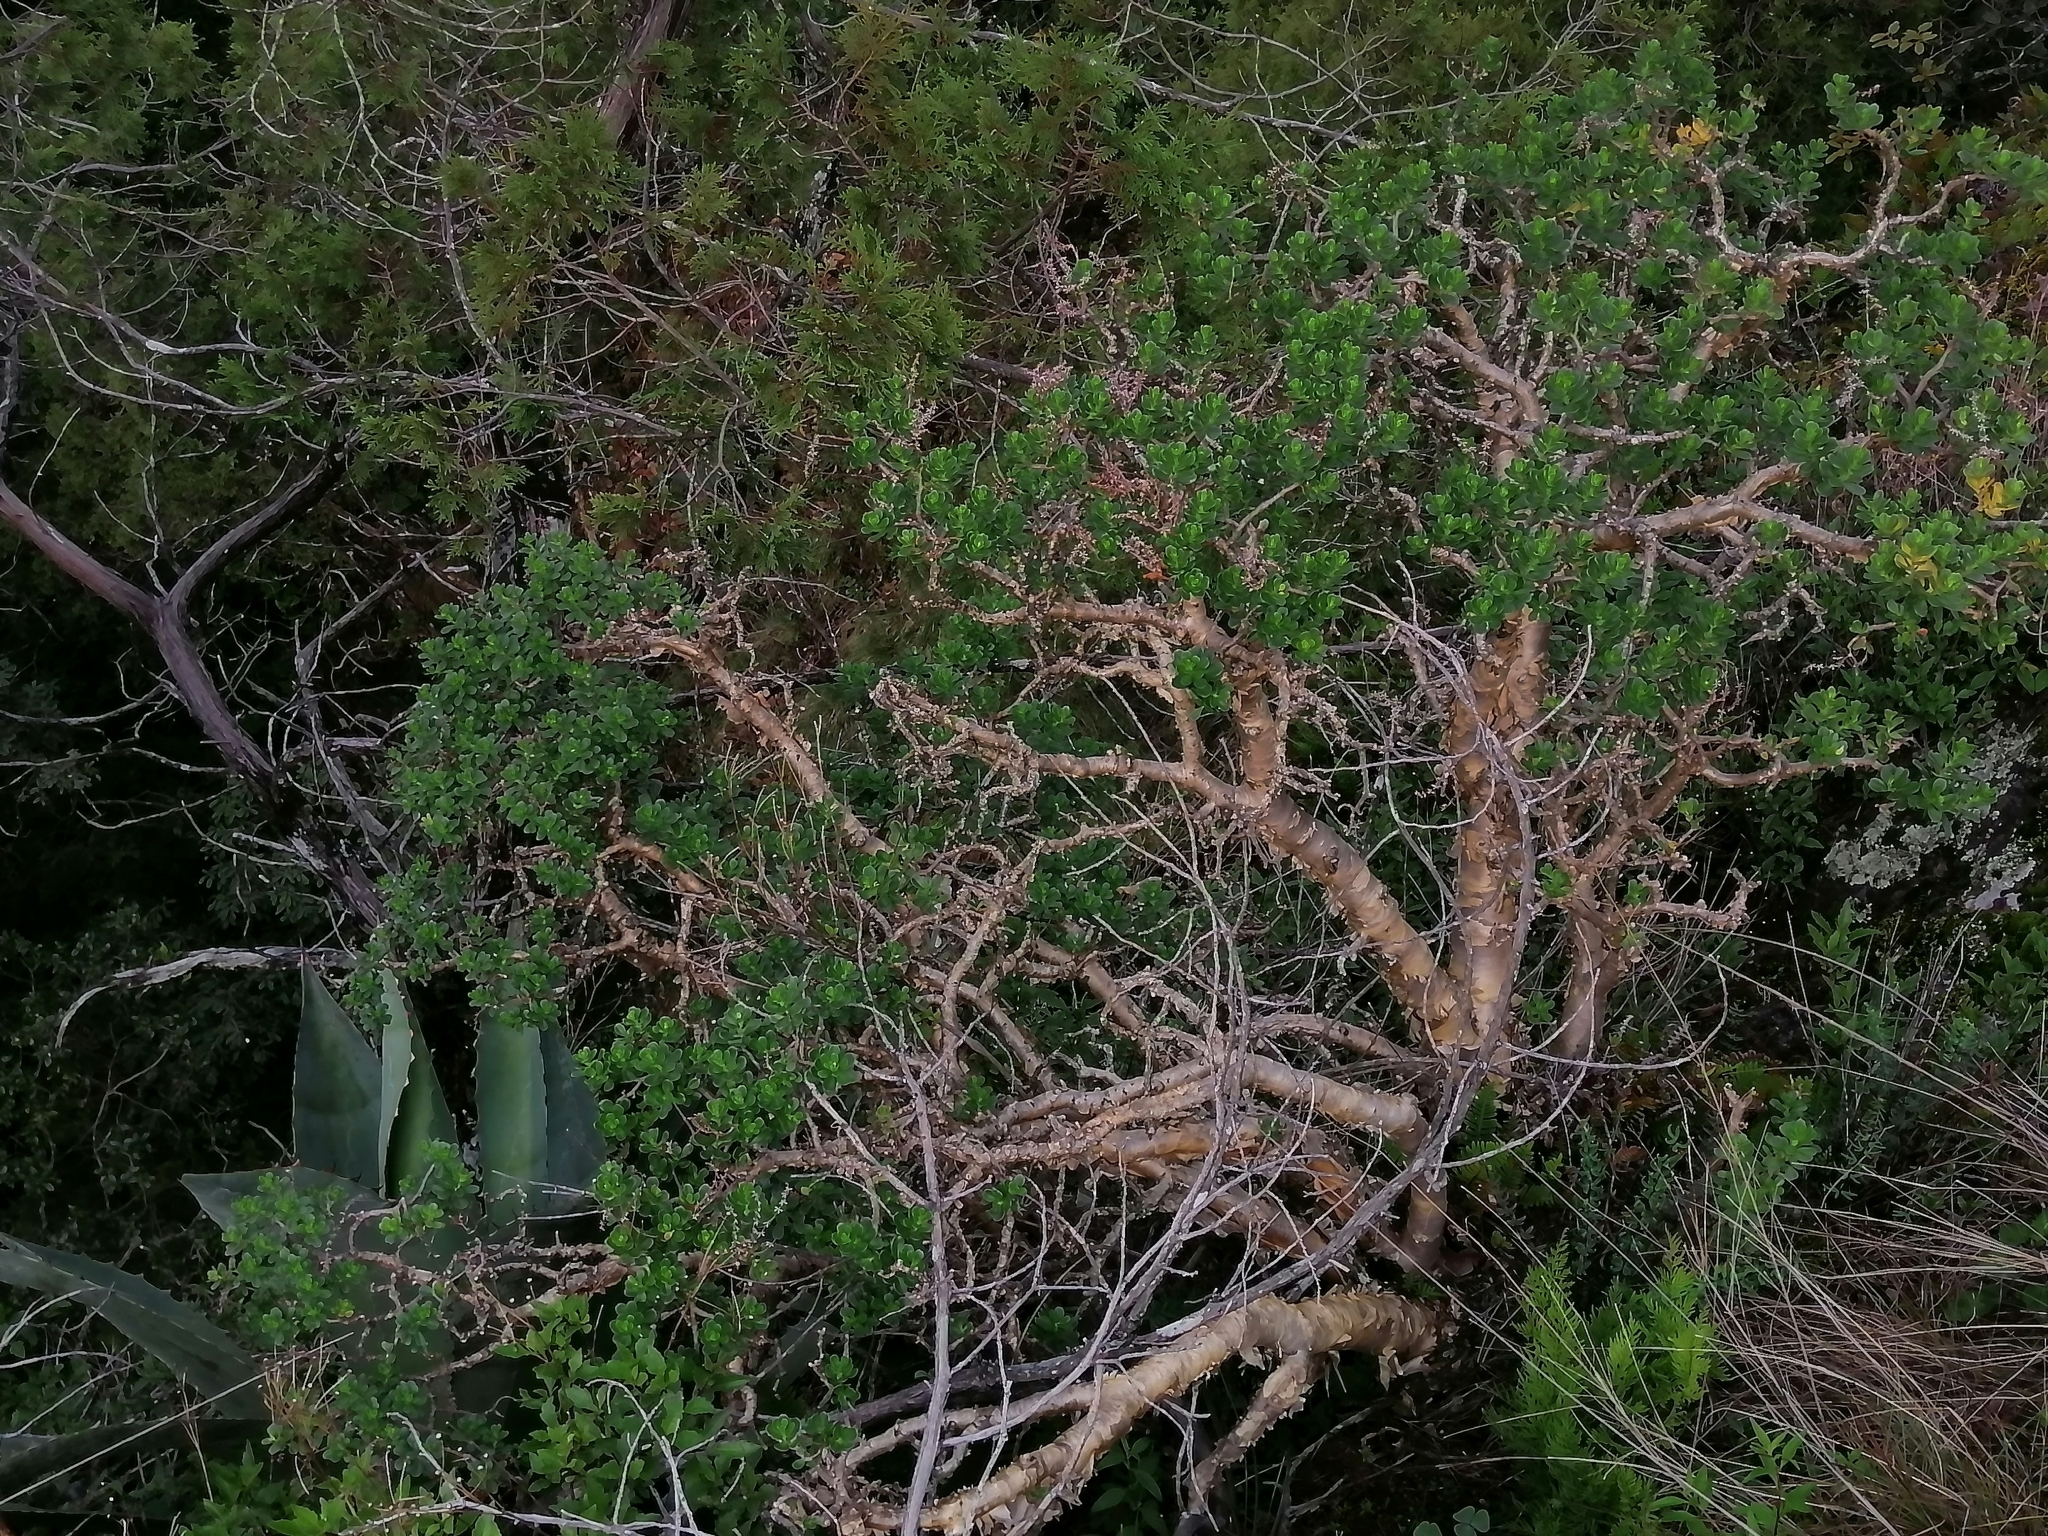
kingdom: Plantae
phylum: Tracheophyta
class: Magnoliopsida
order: Saxifragales
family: Crassulaceae
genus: Sedum
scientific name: Sedum oxypetalum
